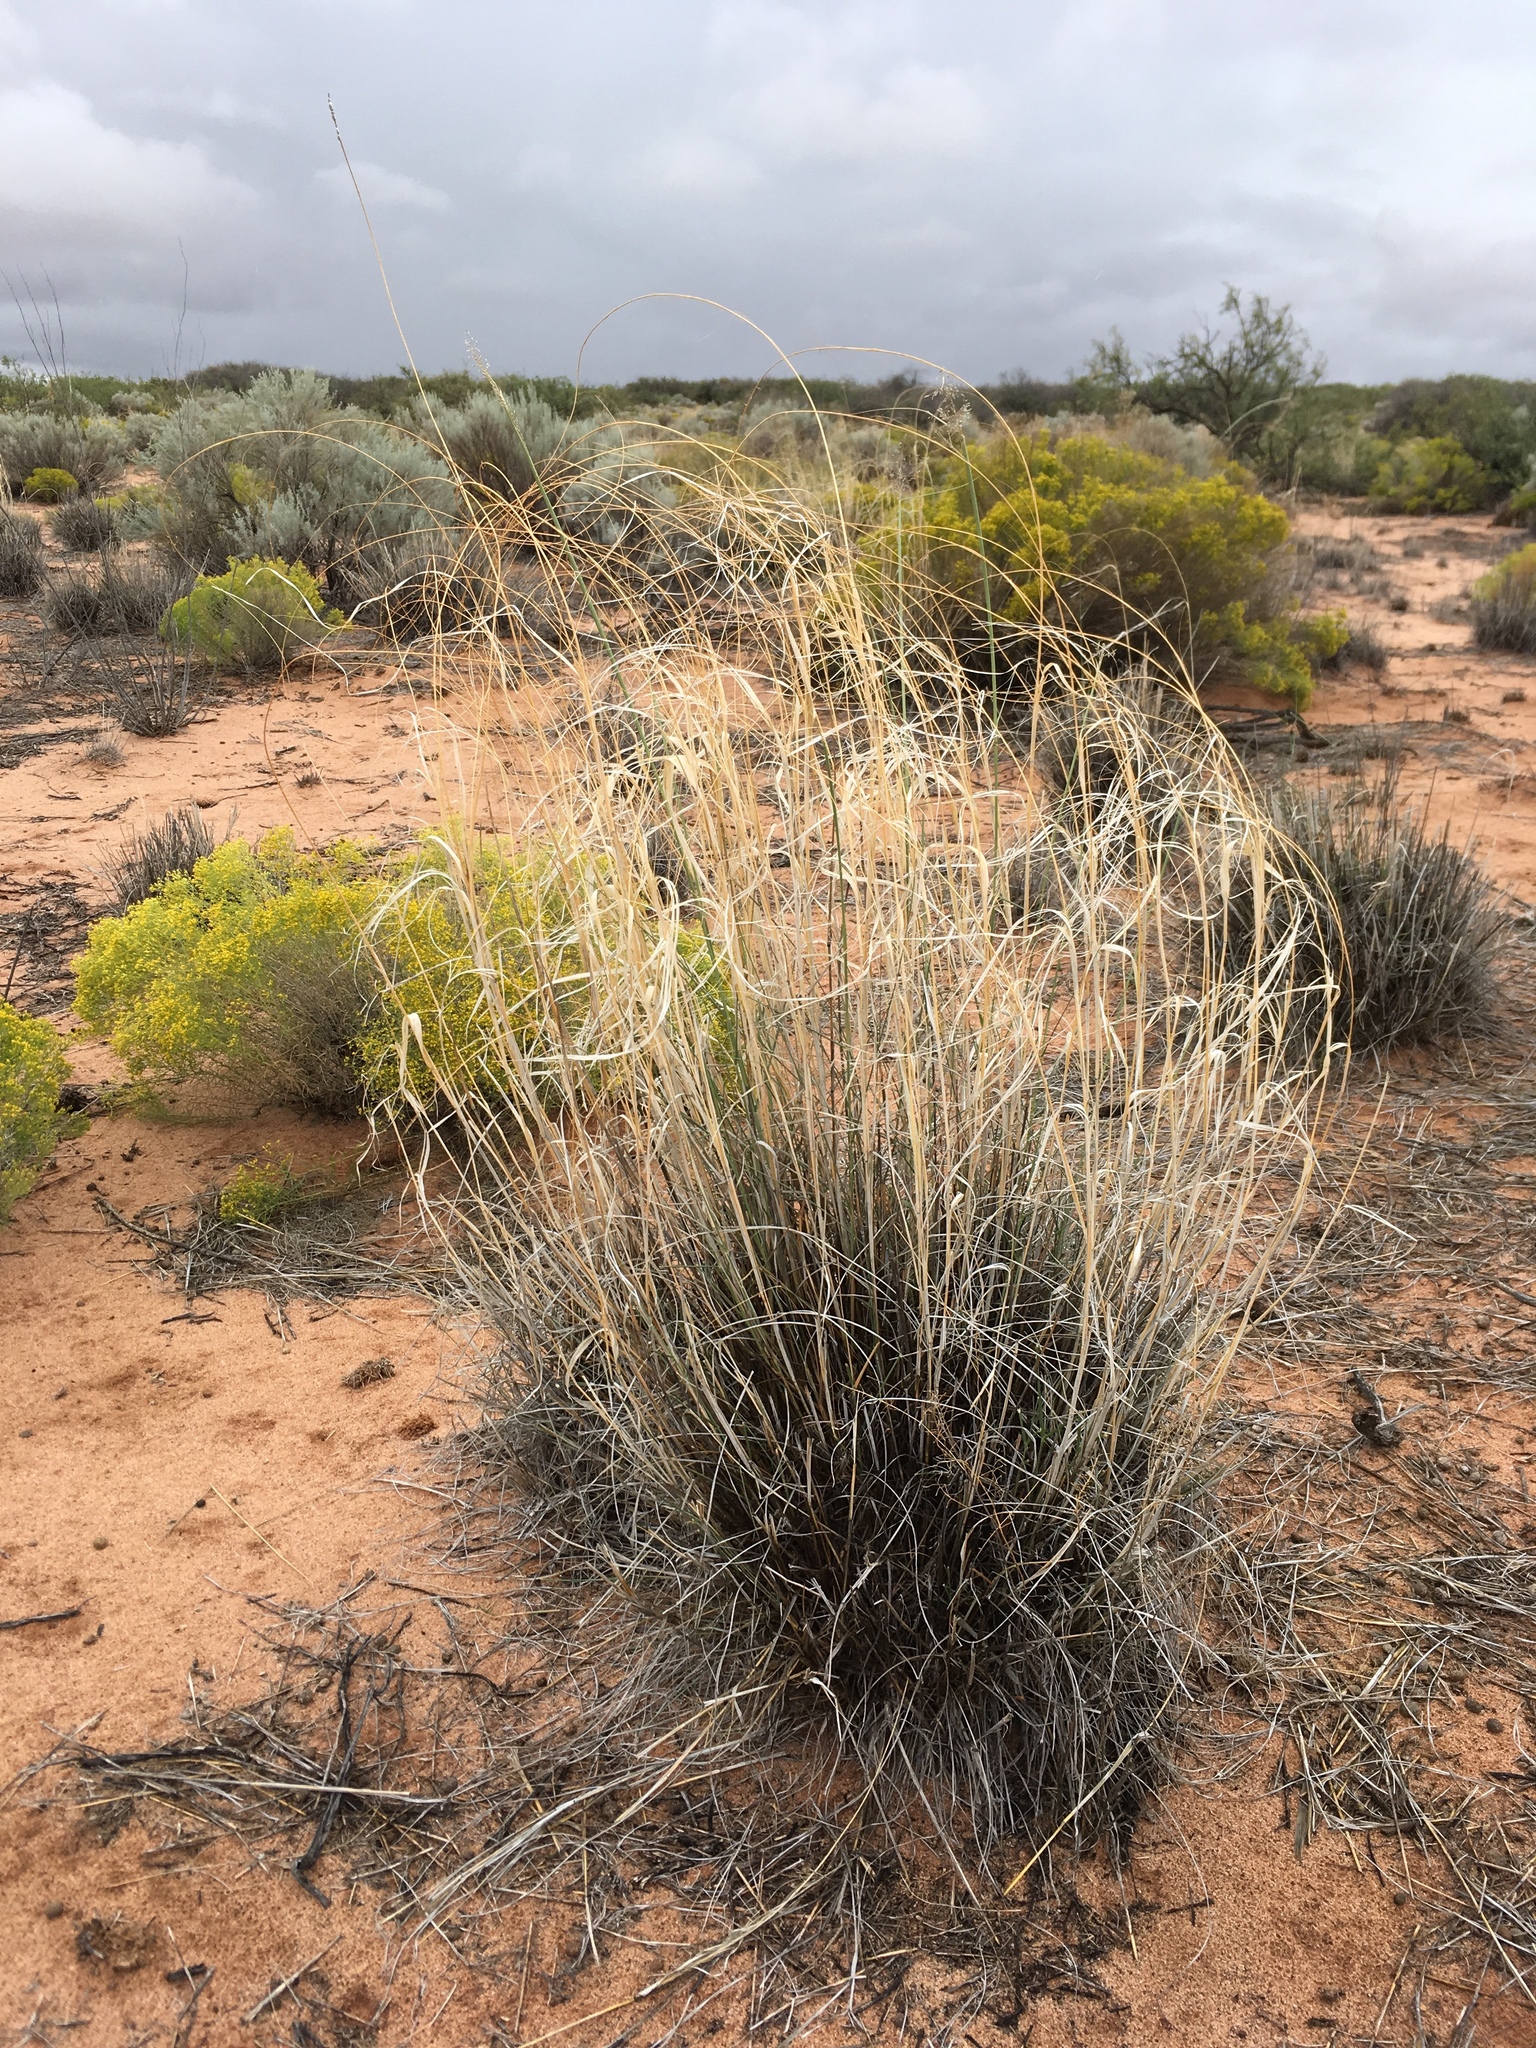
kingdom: Plantae
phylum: Tracheophyta
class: Liliopsida
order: Poales
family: Poaceae
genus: Sporobolus
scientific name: Sporobolus flexuosus
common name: Mesa dropseed
